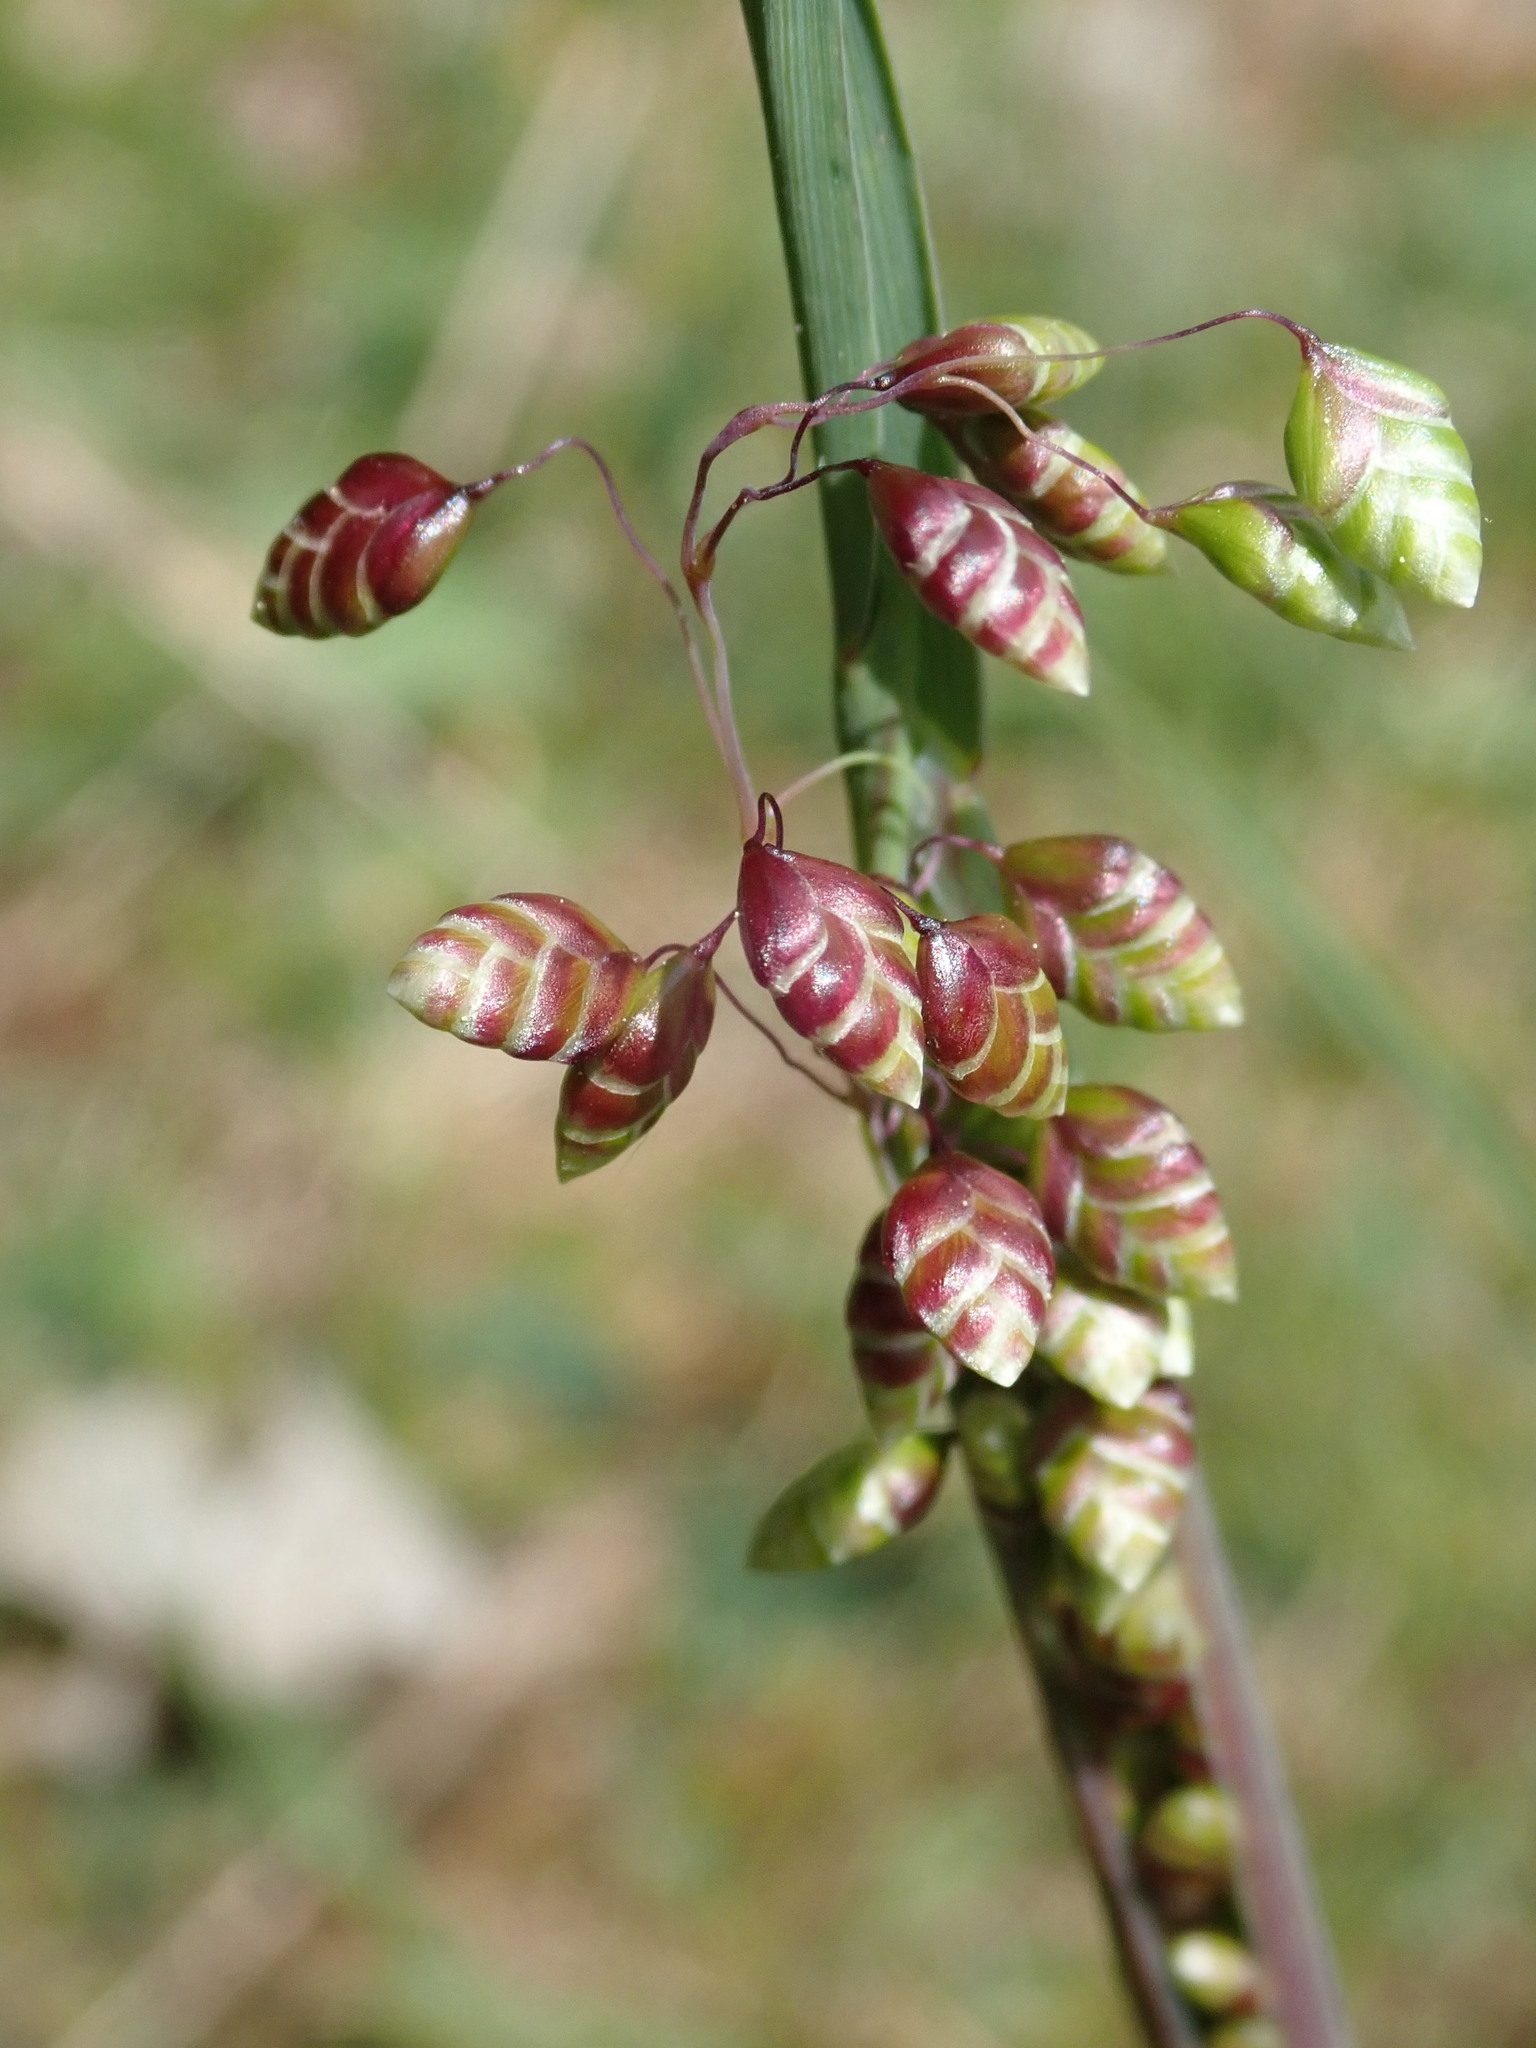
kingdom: Plantae
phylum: Tracheophyta
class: Liliopsida
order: Poales
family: Poaceae
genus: Briza
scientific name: Briza media
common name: Quaking grass
